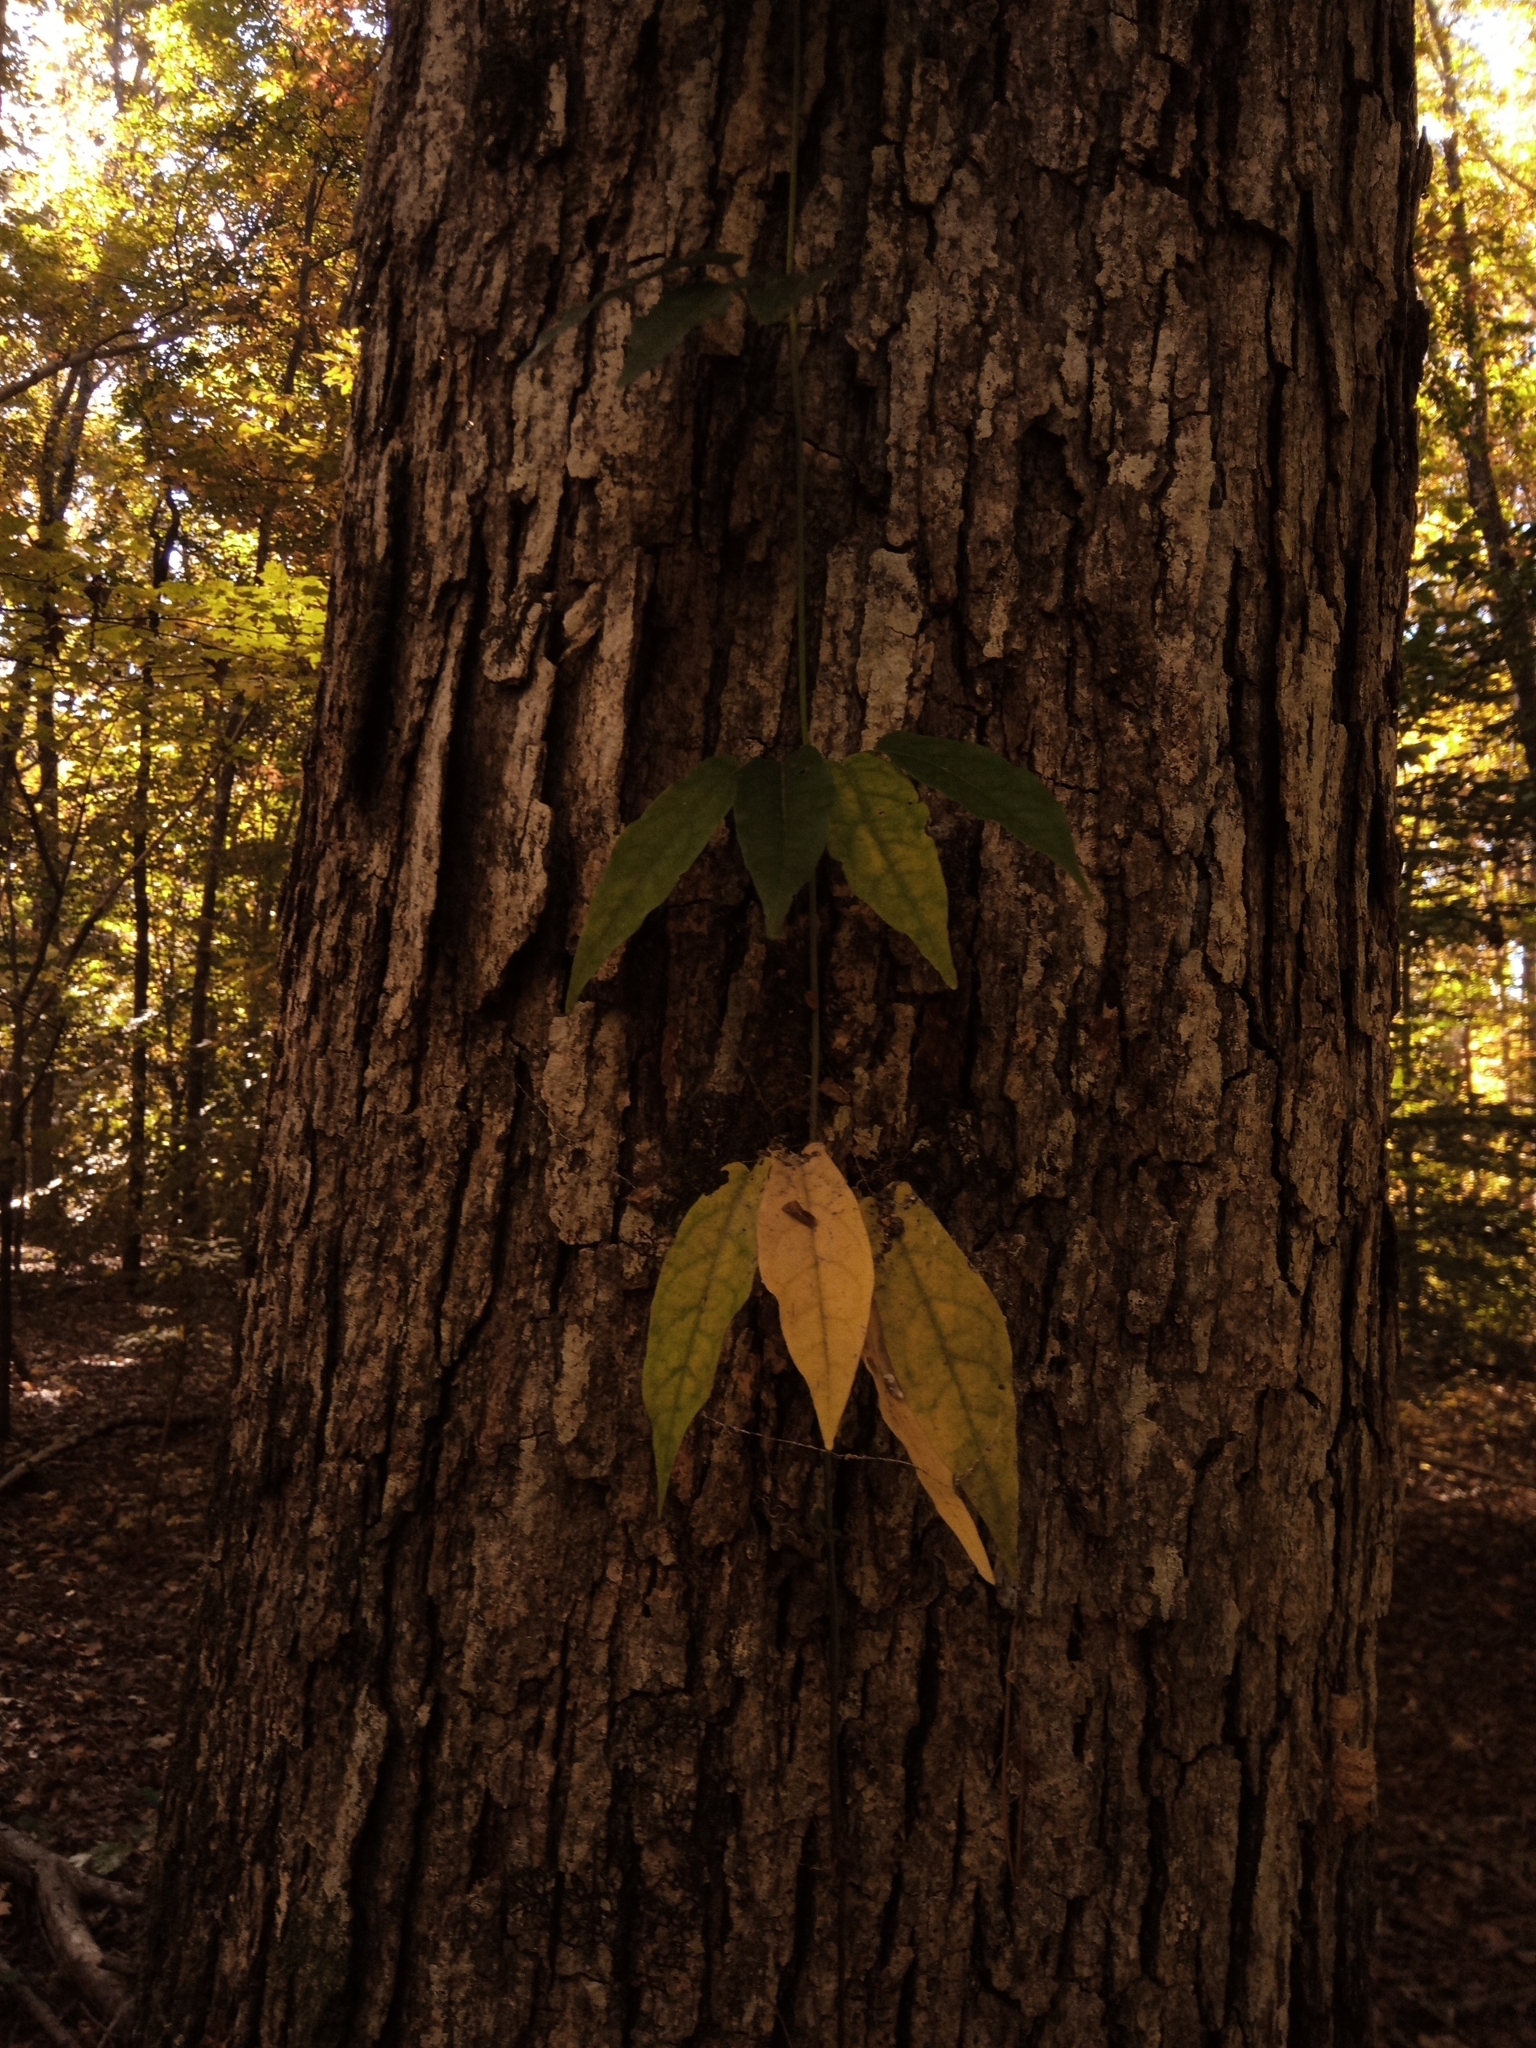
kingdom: Plantae
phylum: Tracheophyta
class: Magnoliopsida
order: Lamiales
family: Bignoniaceae
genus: Bignonia
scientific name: Bignonia capreolata
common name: Crossvine
